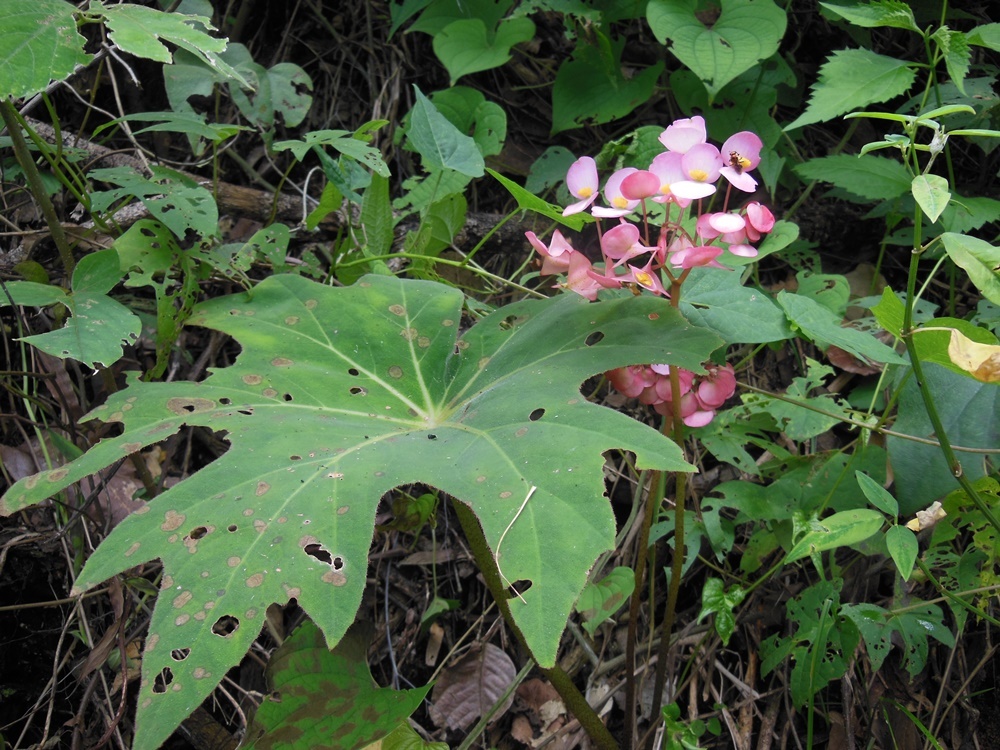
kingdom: Plantae
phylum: Tracheophyta
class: Magnoliopsida
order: Cucurbitales
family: Begoniaceae
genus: Begonia
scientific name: Begonia philodendroides
